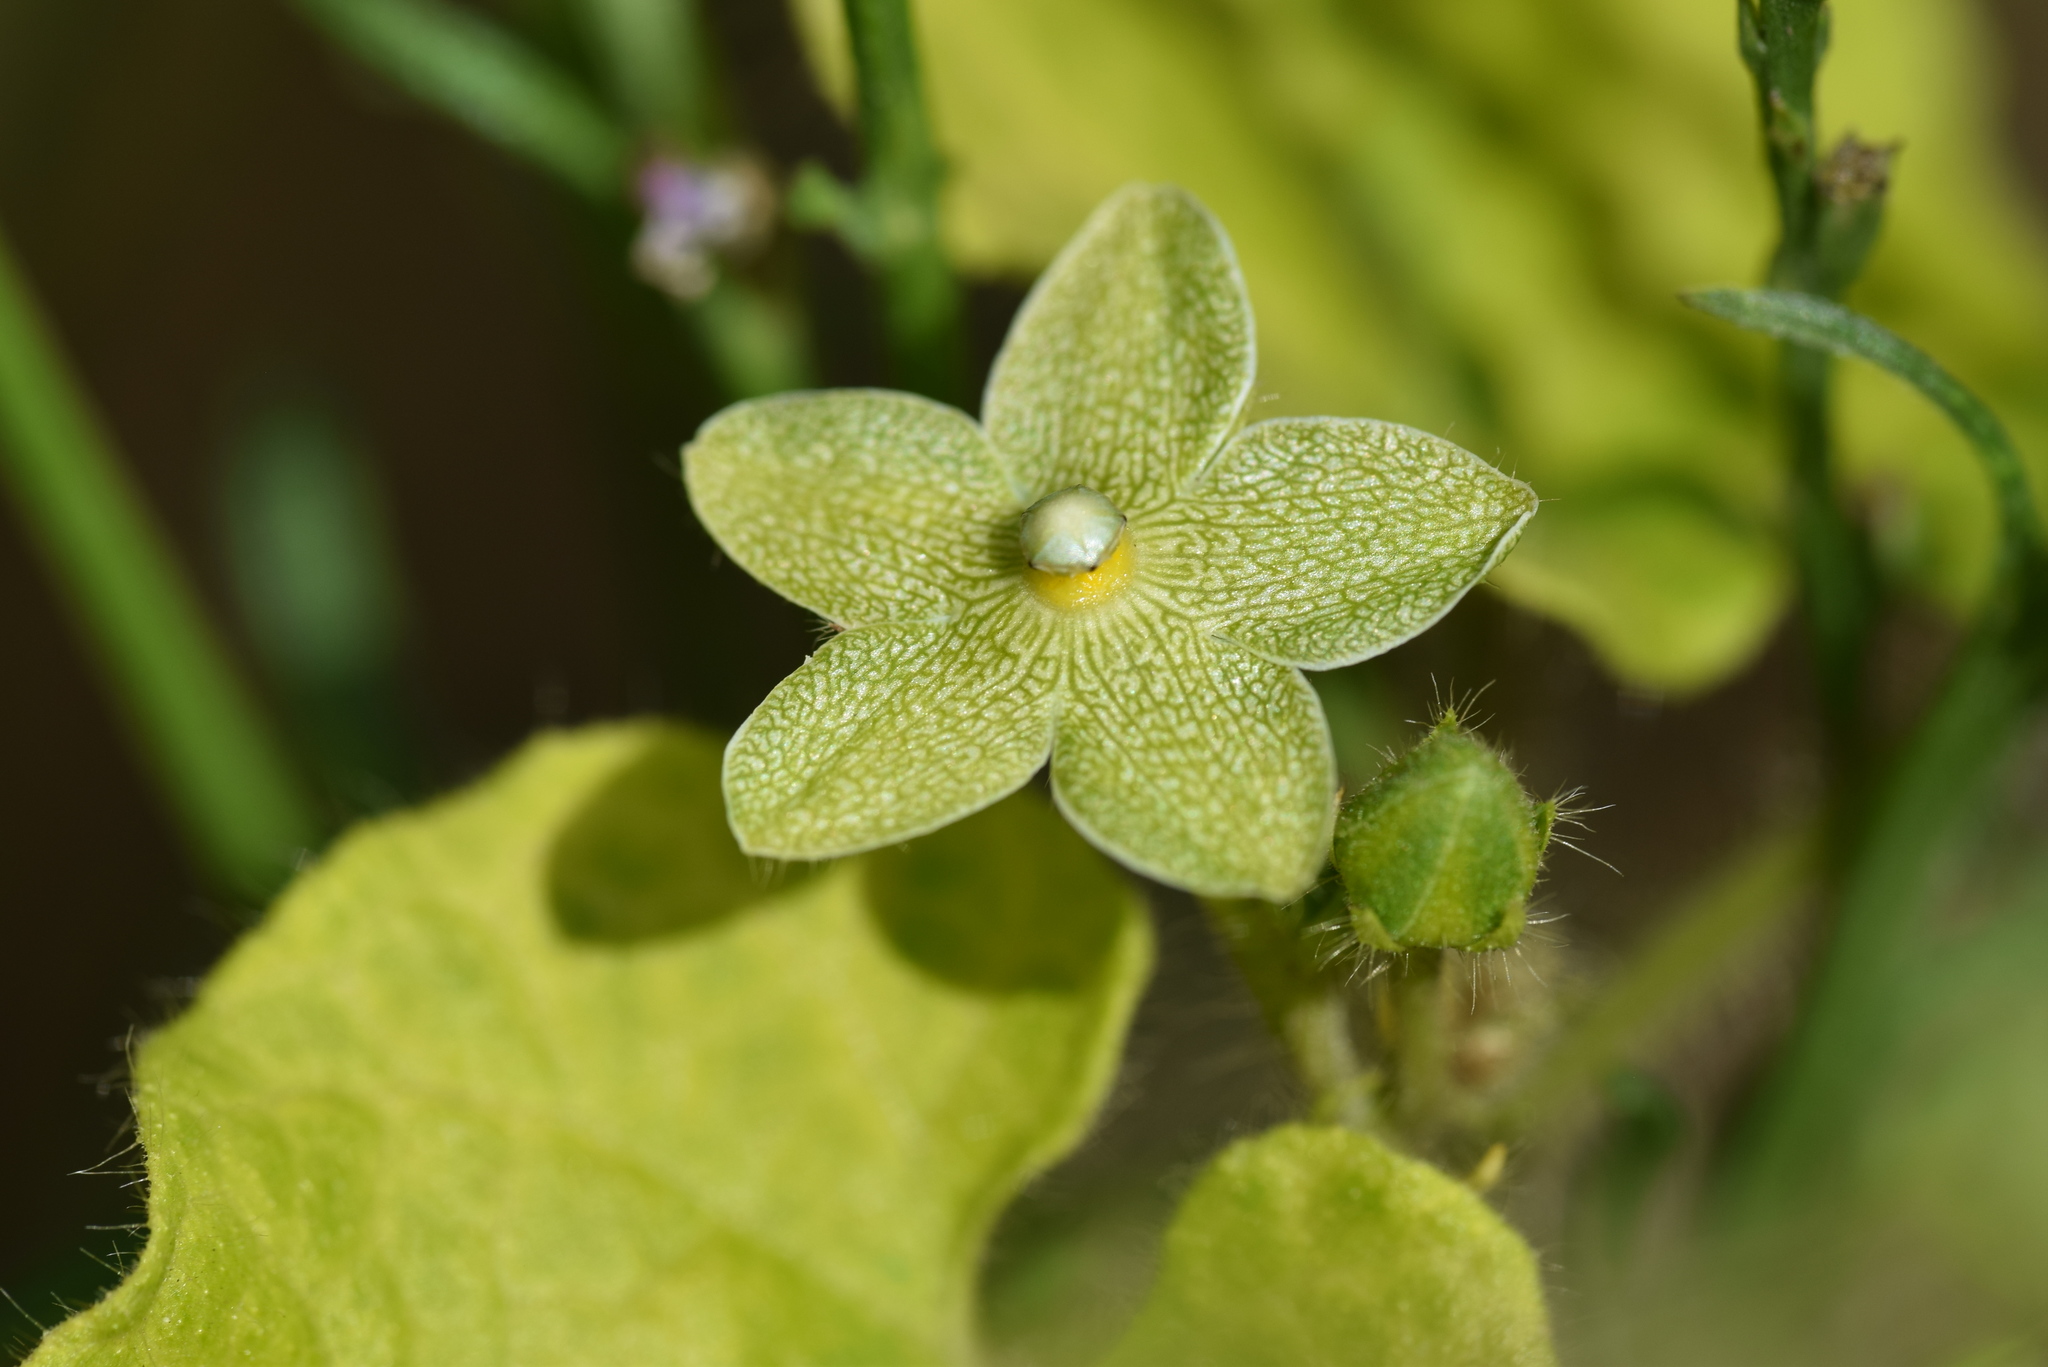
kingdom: Plantae
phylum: Tracheophyta
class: Magnoliopsida
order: Gentianales
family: Apocynaceae
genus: Dictyanthus
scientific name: Dictyanthus reticulatus
